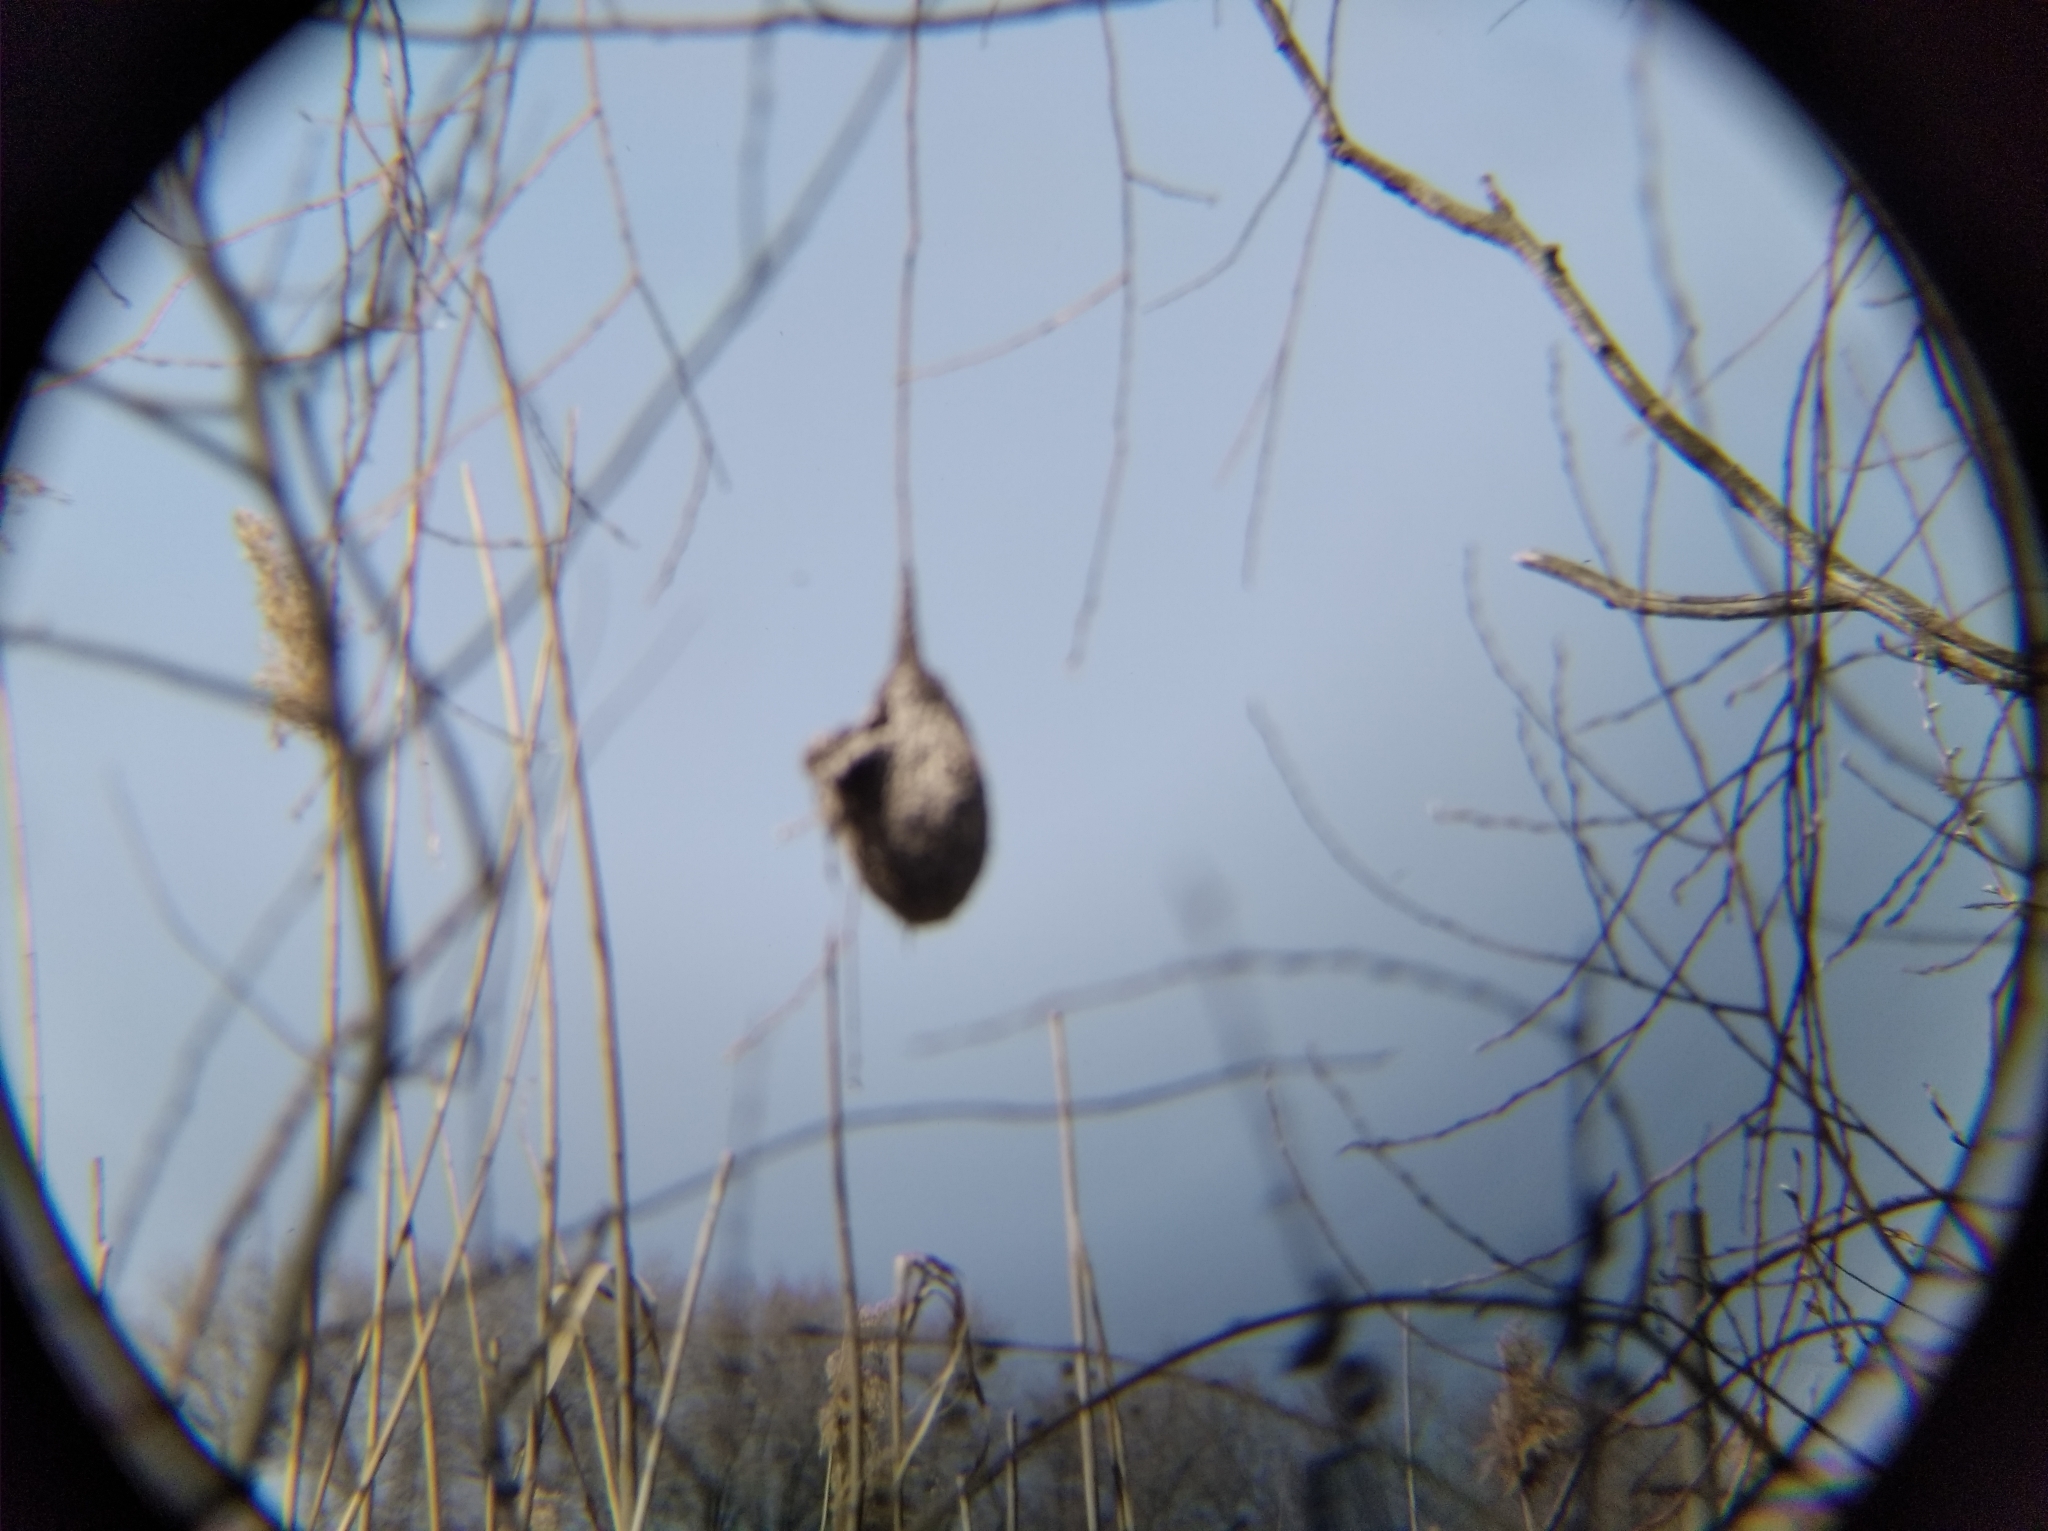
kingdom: Animalia
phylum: Chordata
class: Aves
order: Passeriformes
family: Remizidae
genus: Remiz
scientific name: Remiz pendulinus
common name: Eurasian penduline tit
